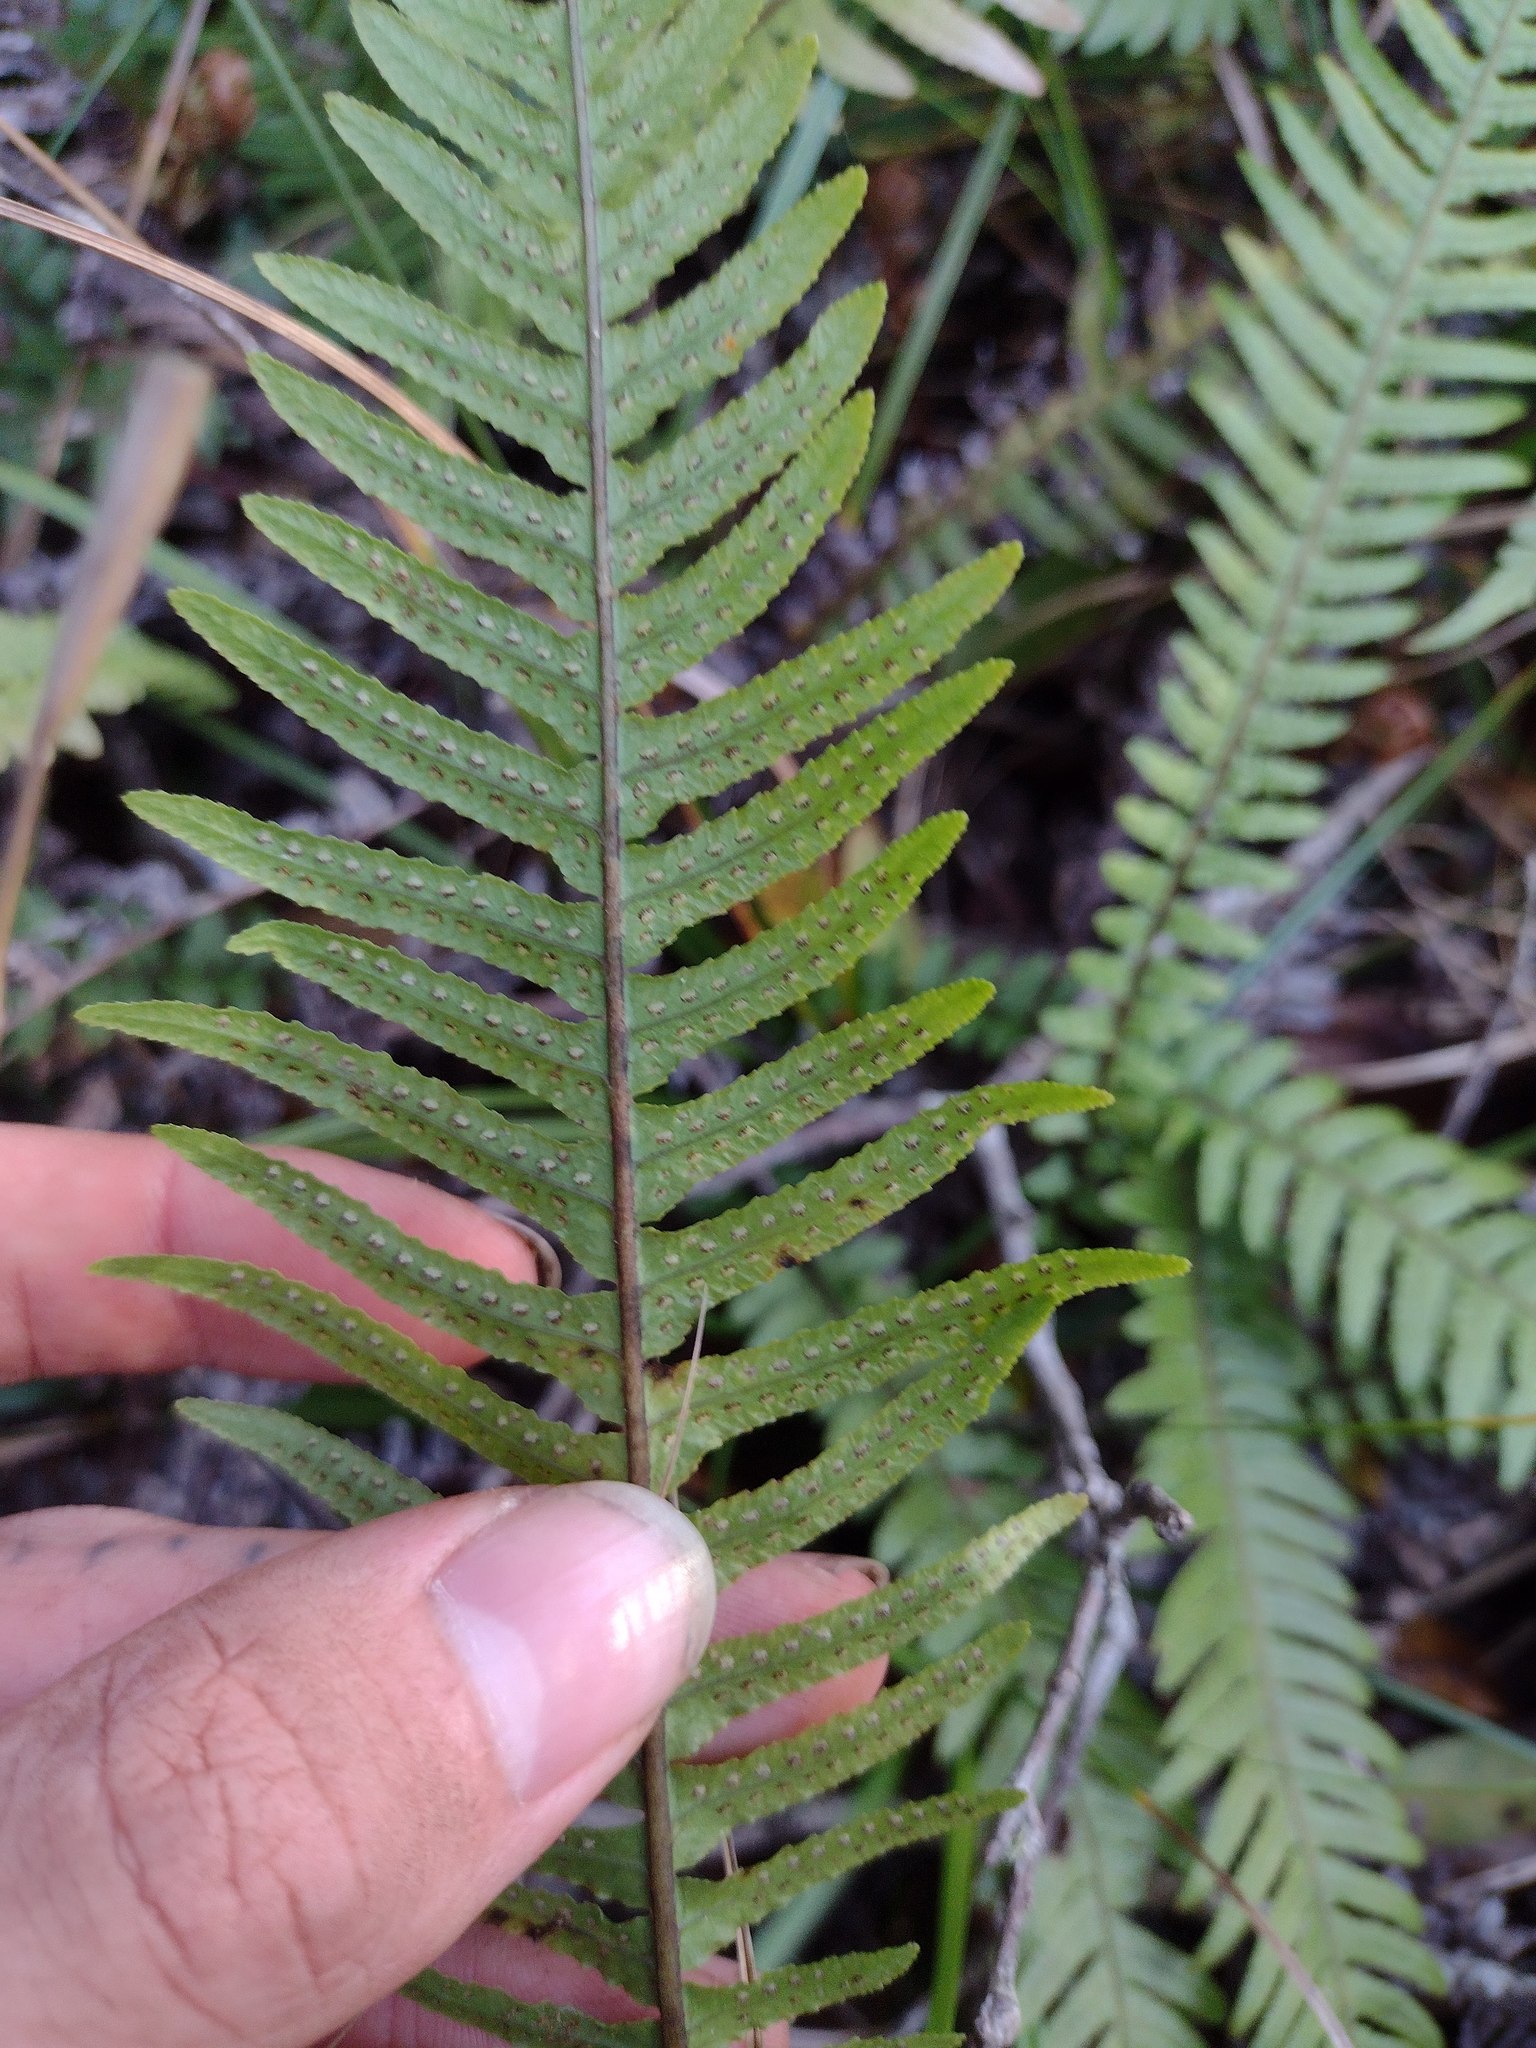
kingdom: Plantae
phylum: Tracheophyta
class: Polypodiopsida
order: Polypodiales
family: Blechnaceae
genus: Doodia
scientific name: Doodia kunthiana
